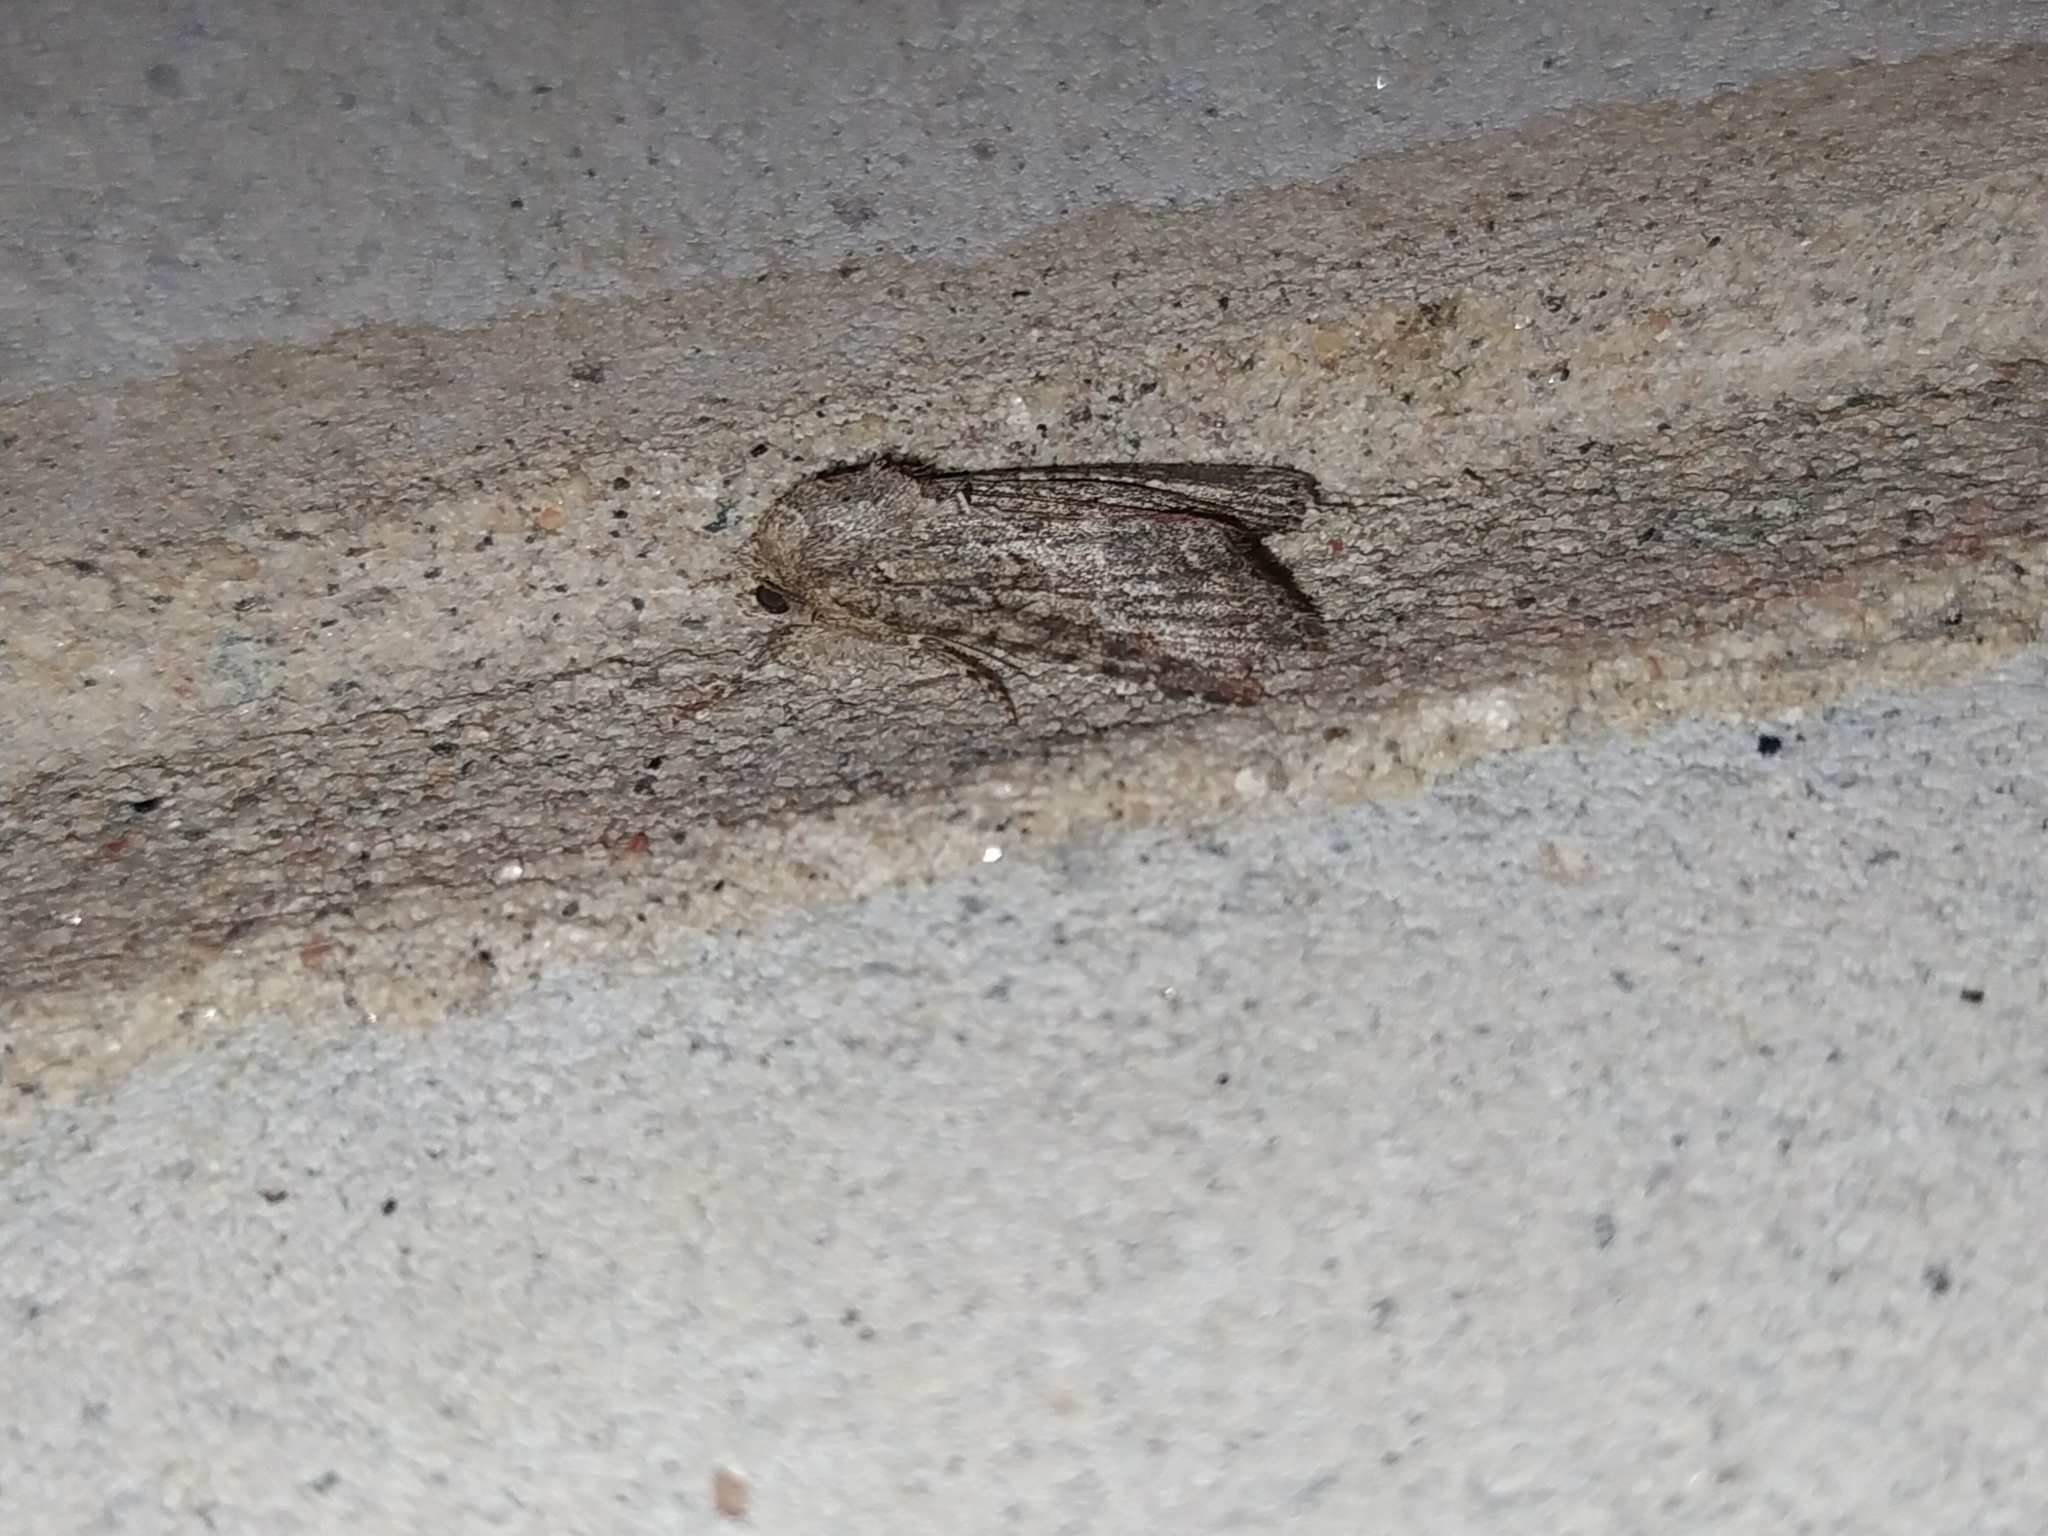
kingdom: Animalia
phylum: Arthropoda
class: Insecta
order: Lepidoptera
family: Noctuidae
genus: Anarta
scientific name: Anarta trifolii
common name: Clover cutworm moth
